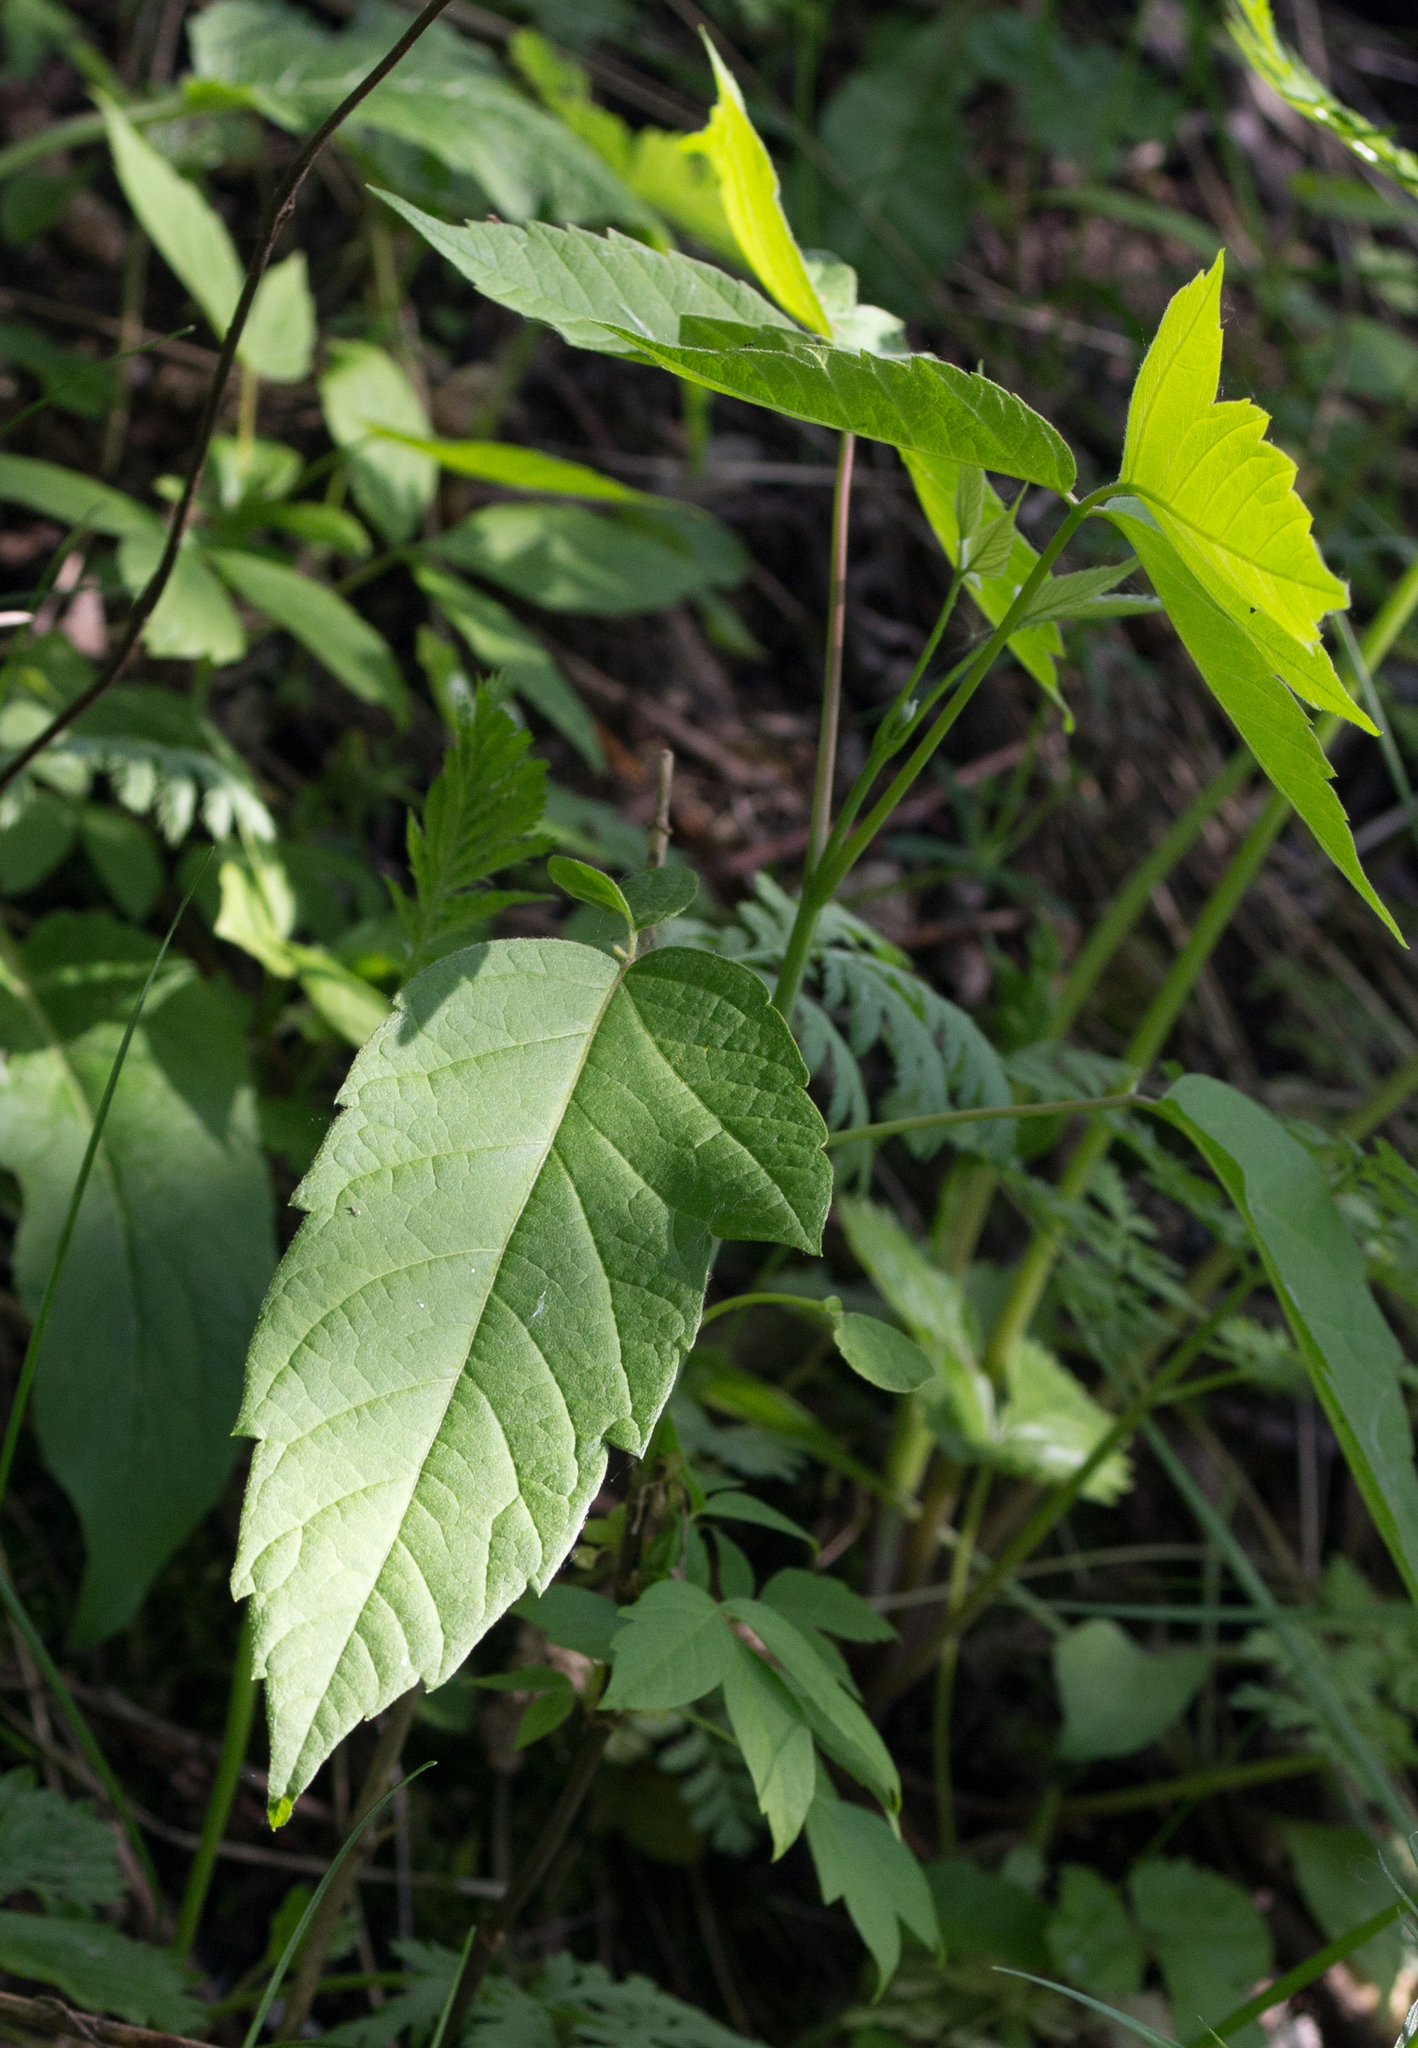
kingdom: Plantae
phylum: Tracheophyta
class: Magnoliopsida
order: Sapindales
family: Sapindaceae
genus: Acer
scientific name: Acer negundo
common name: Ashleaf maple
